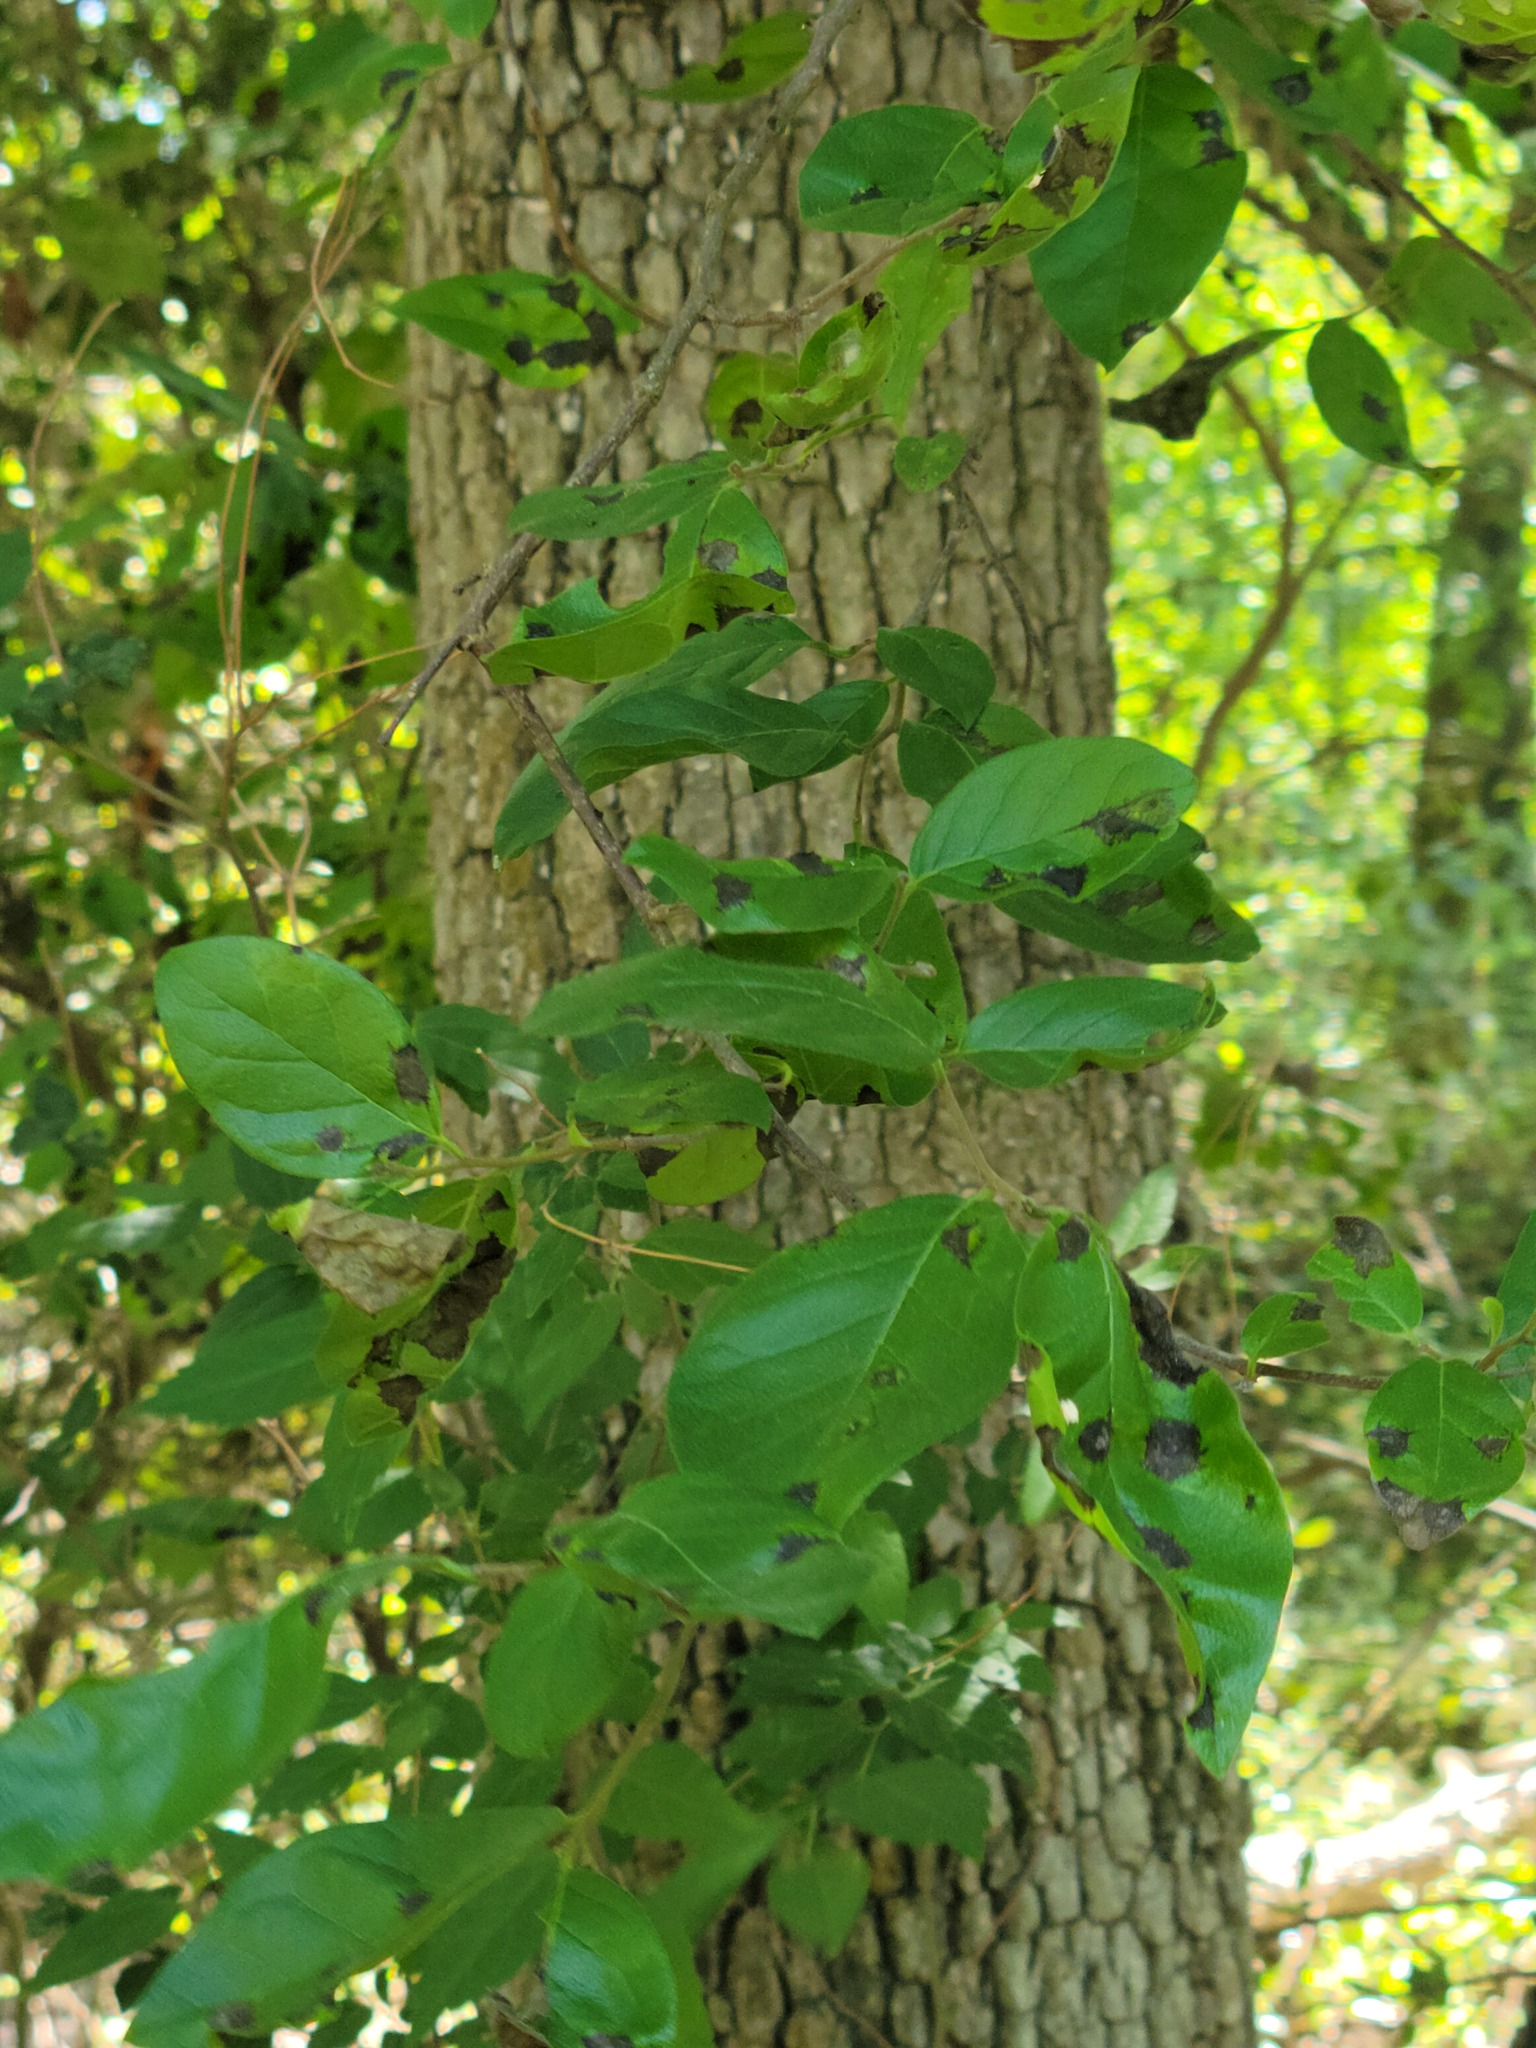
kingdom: Plantae
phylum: Tracheophyta
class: Magnoliopsida
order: Boraginales
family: Ehretiaceae
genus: Ehretia
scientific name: Ehretia anacua
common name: Sugarberry
